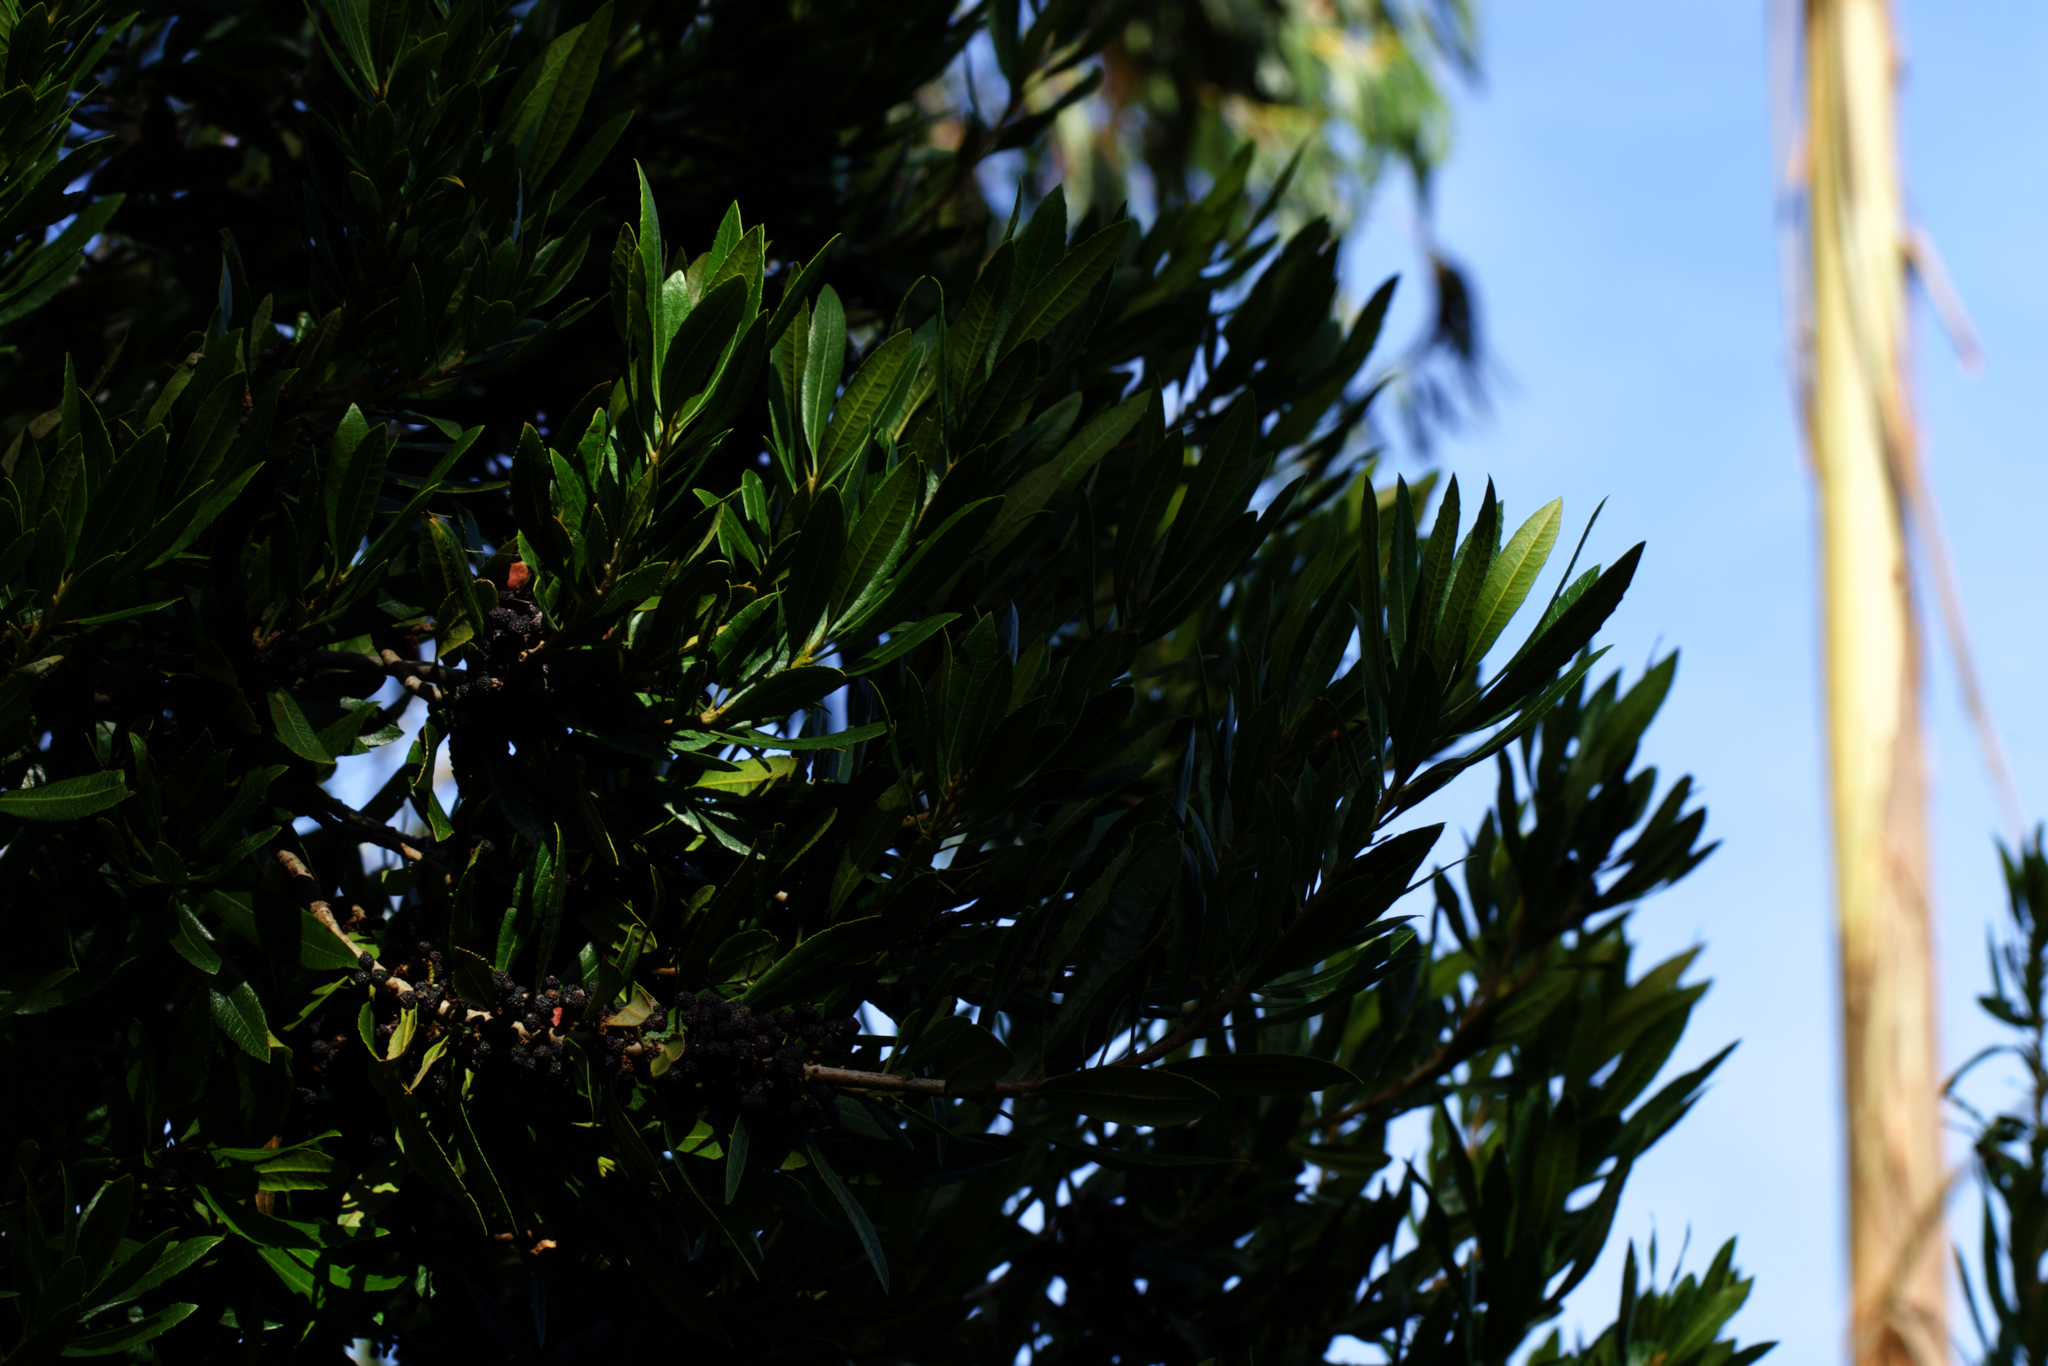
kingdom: Plantae
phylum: Tracheophyta
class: Magnoliopsida
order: Fagales
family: Myricaceae
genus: Morella
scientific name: Morella californica
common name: California wax-myrtle
